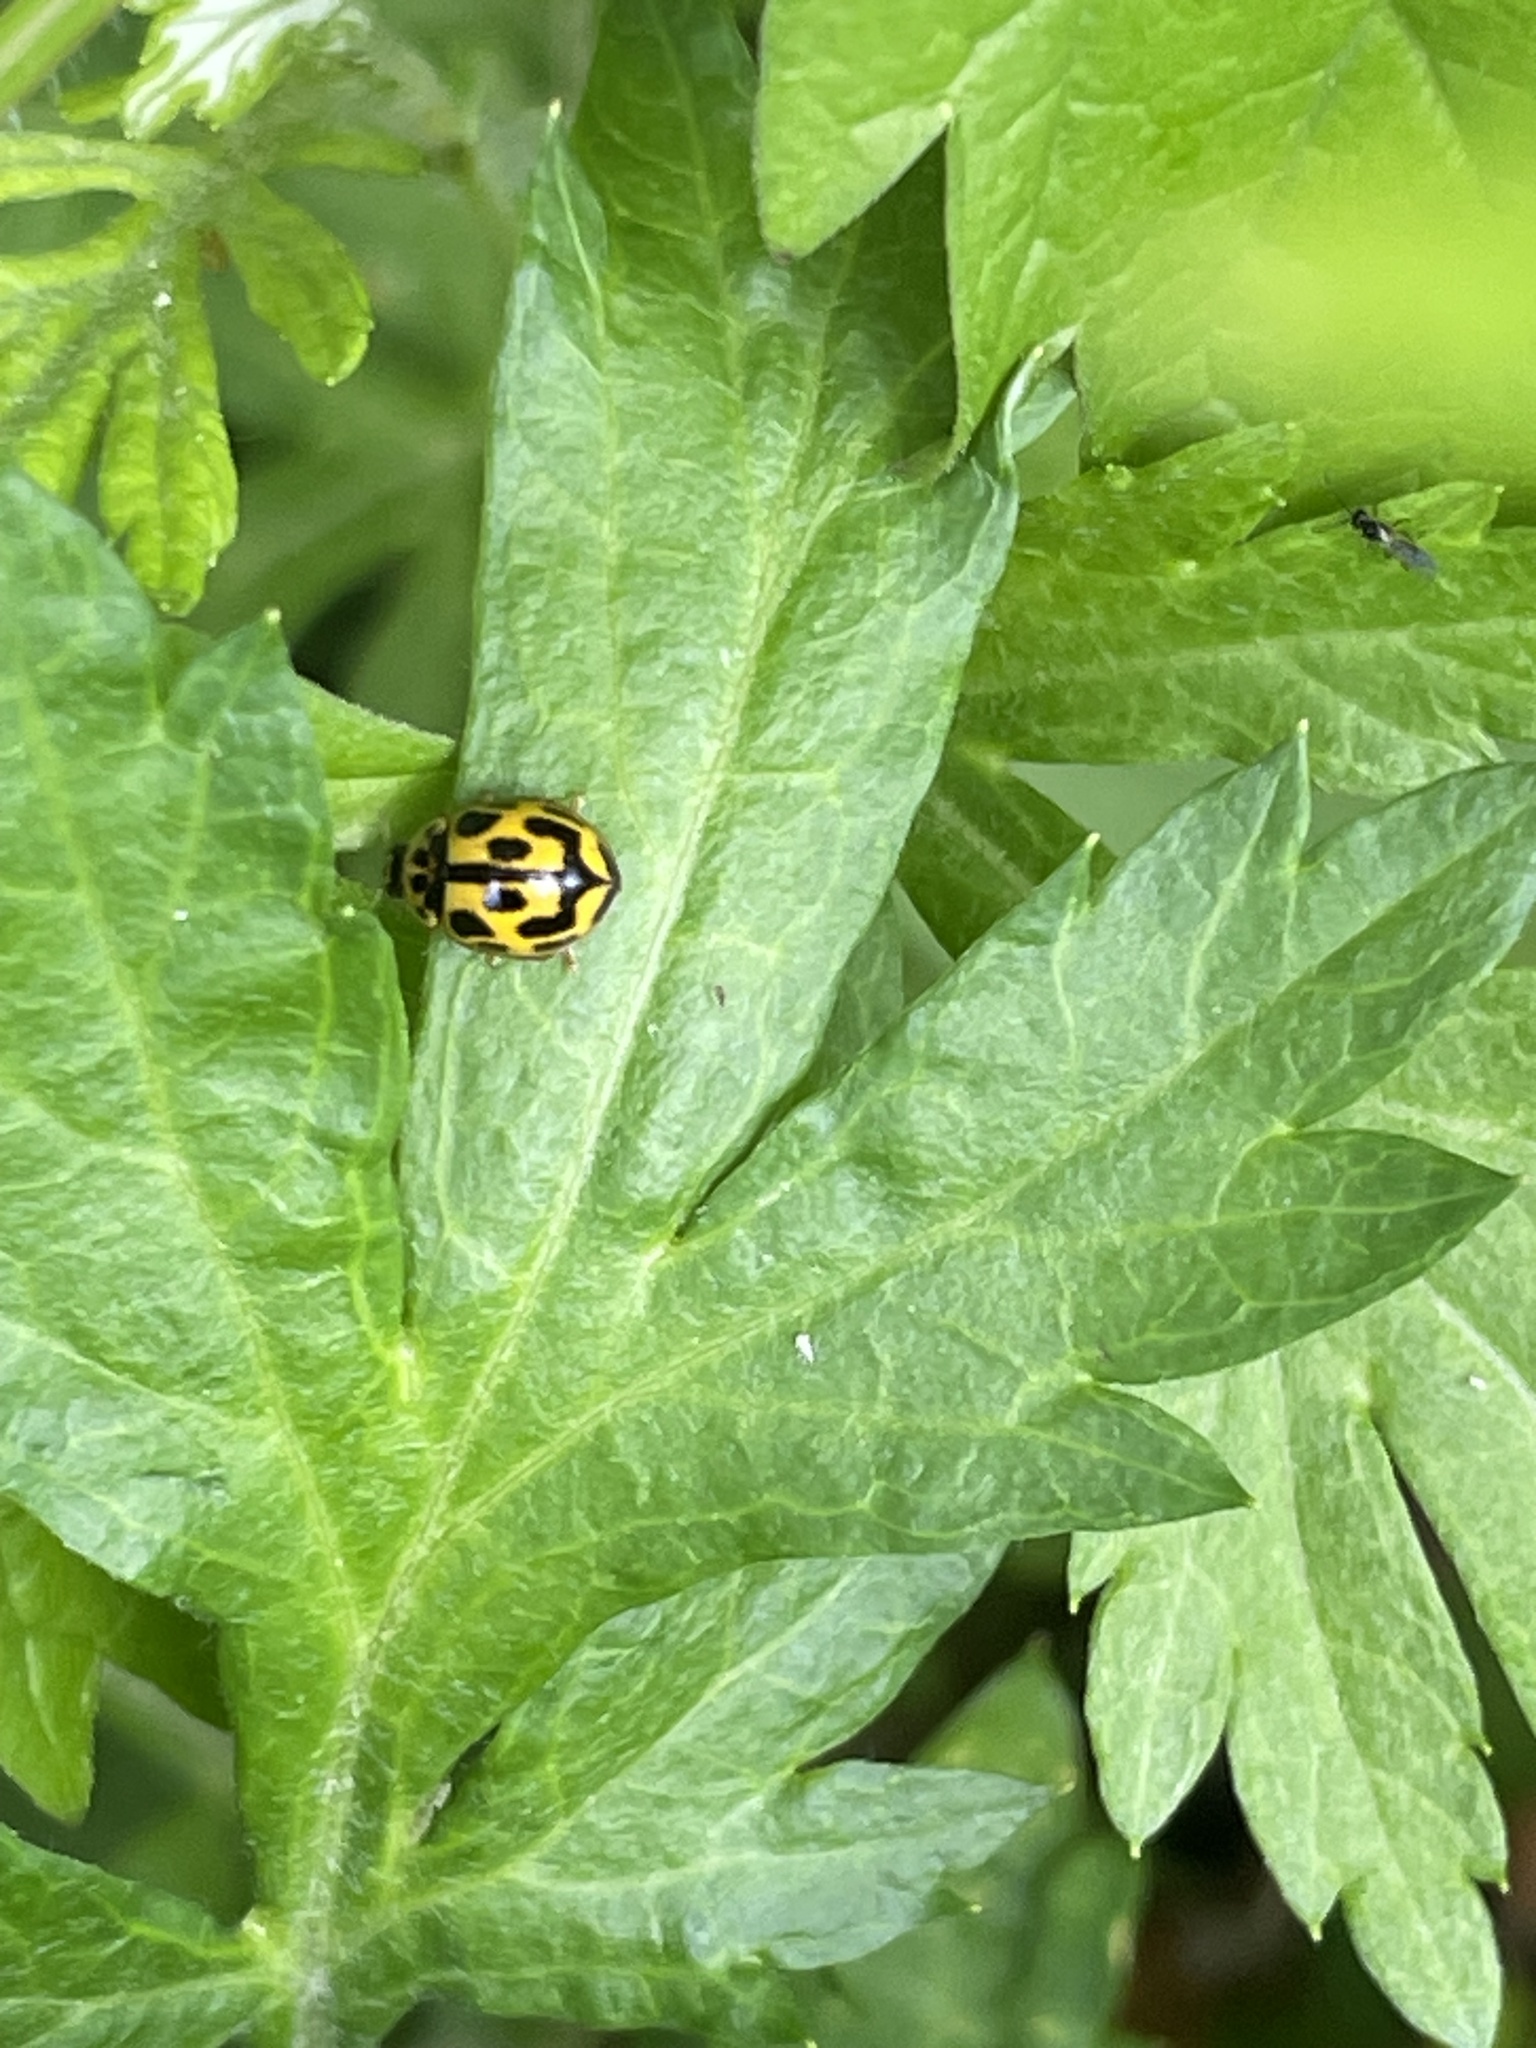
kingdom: Animalia
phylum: Arthropoda
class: Insecta
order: Coleoptera
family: Coccinellidae
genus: Propylaea
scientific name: Propylaea quatuordecimpunctata
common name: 14-spotted ladybird beetle
